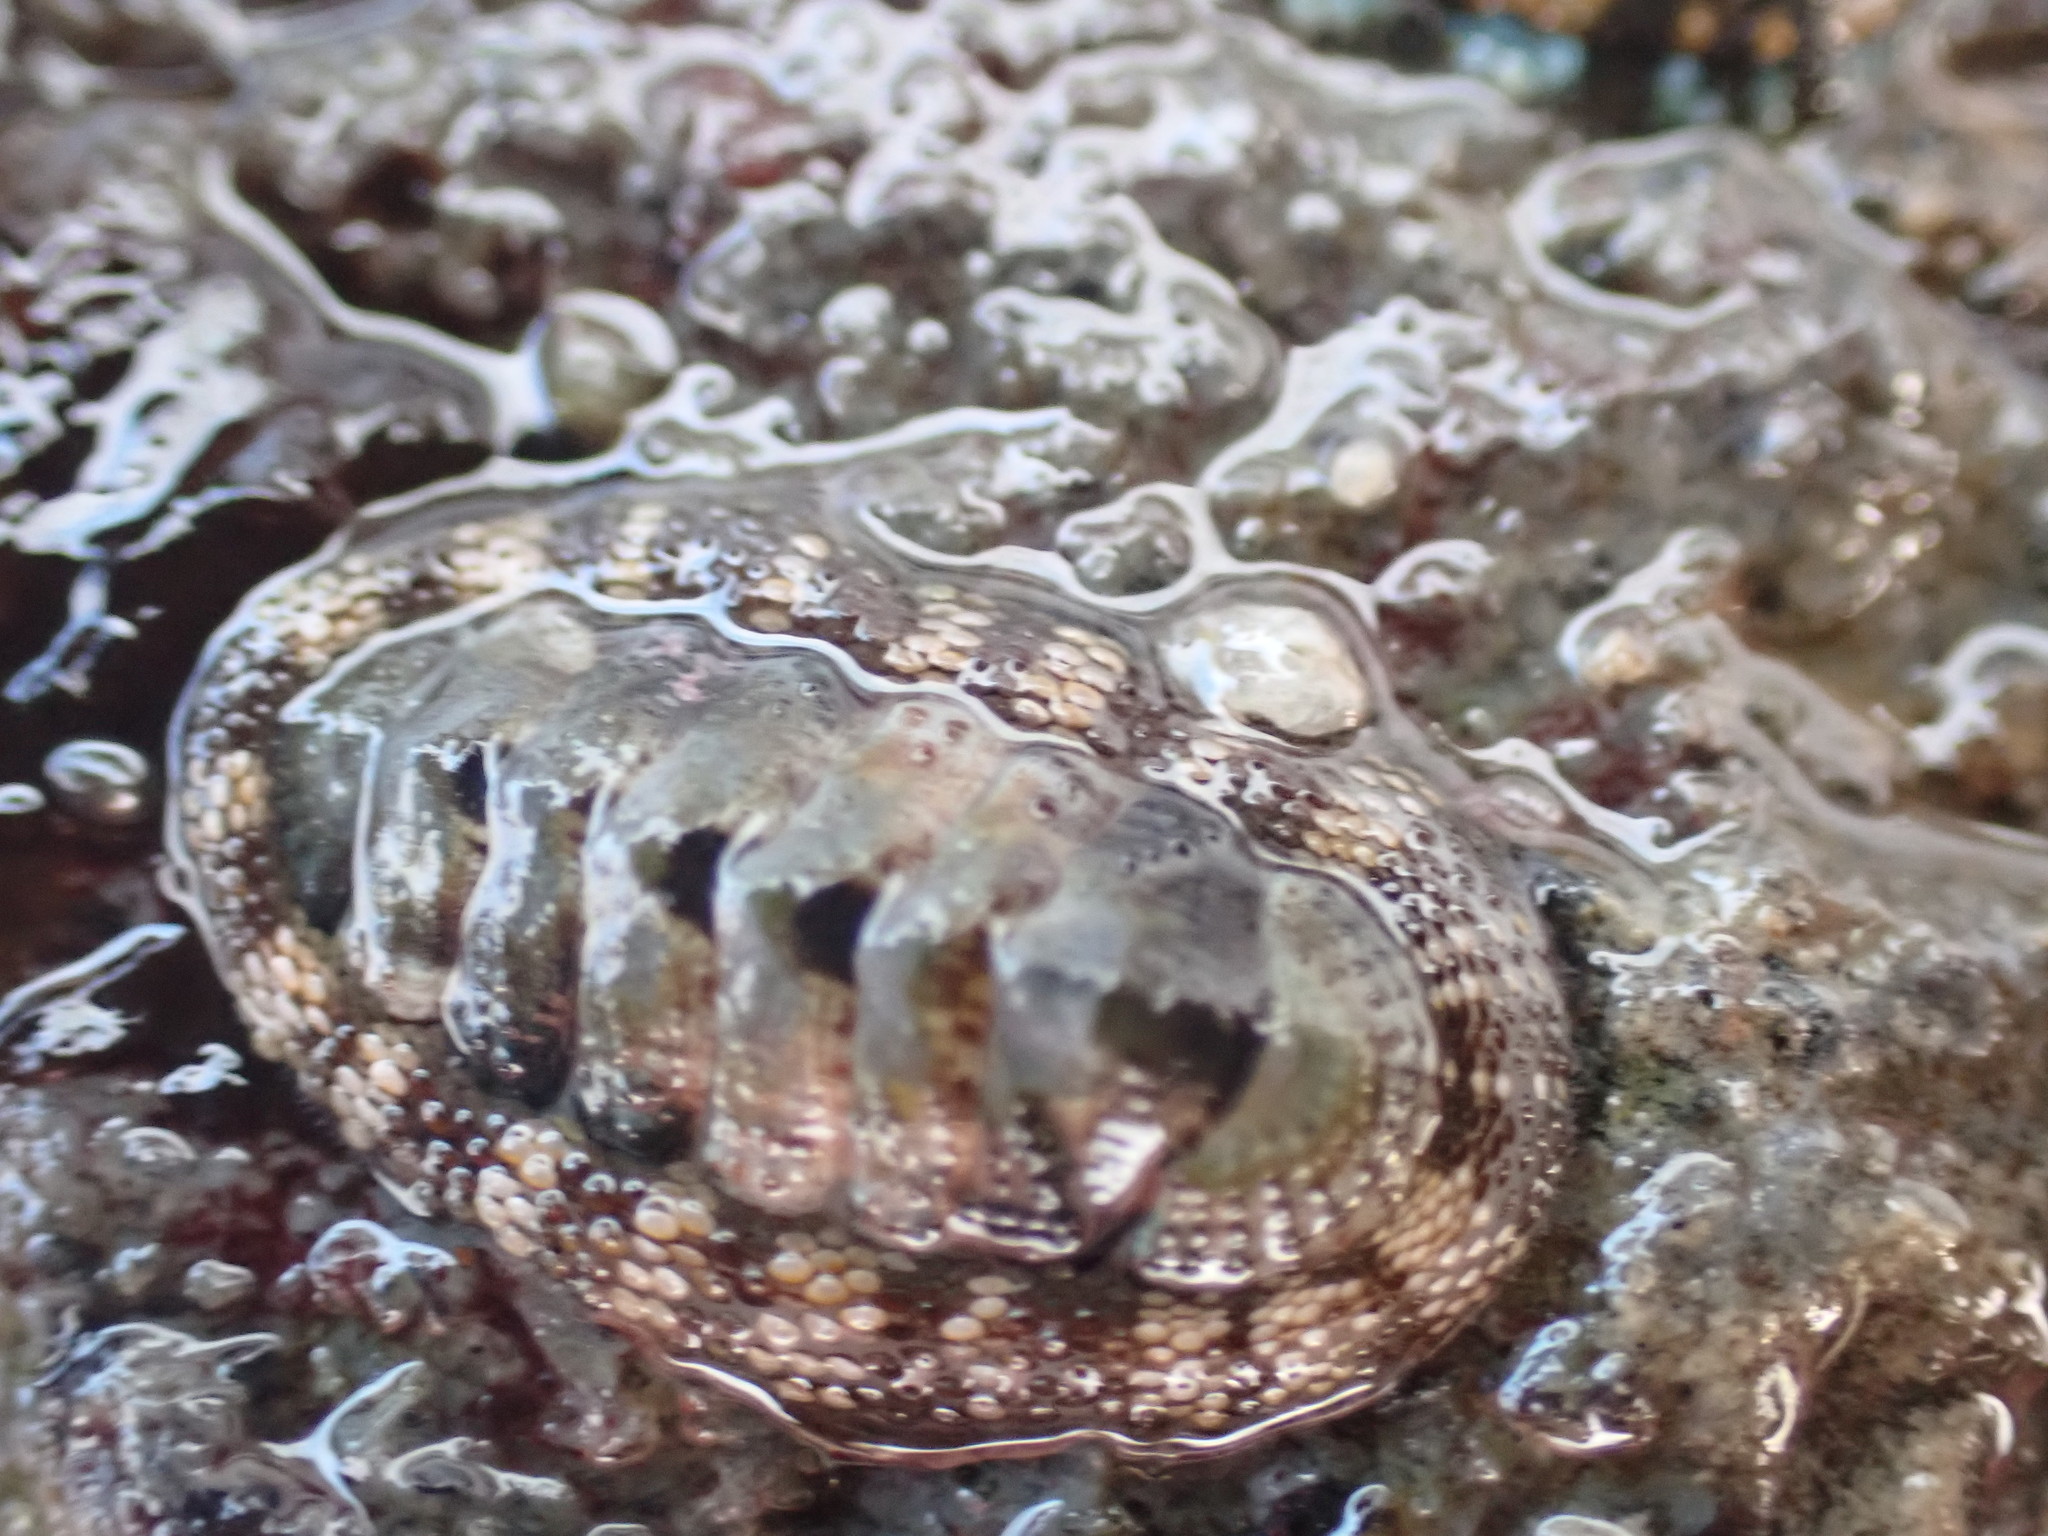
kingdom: Animalia
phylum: Mollusca
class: Polyplacophora
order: Chitonida
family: Chitonidae
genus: Sypharochiton
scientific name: Sypharochiton pelliserpentis
